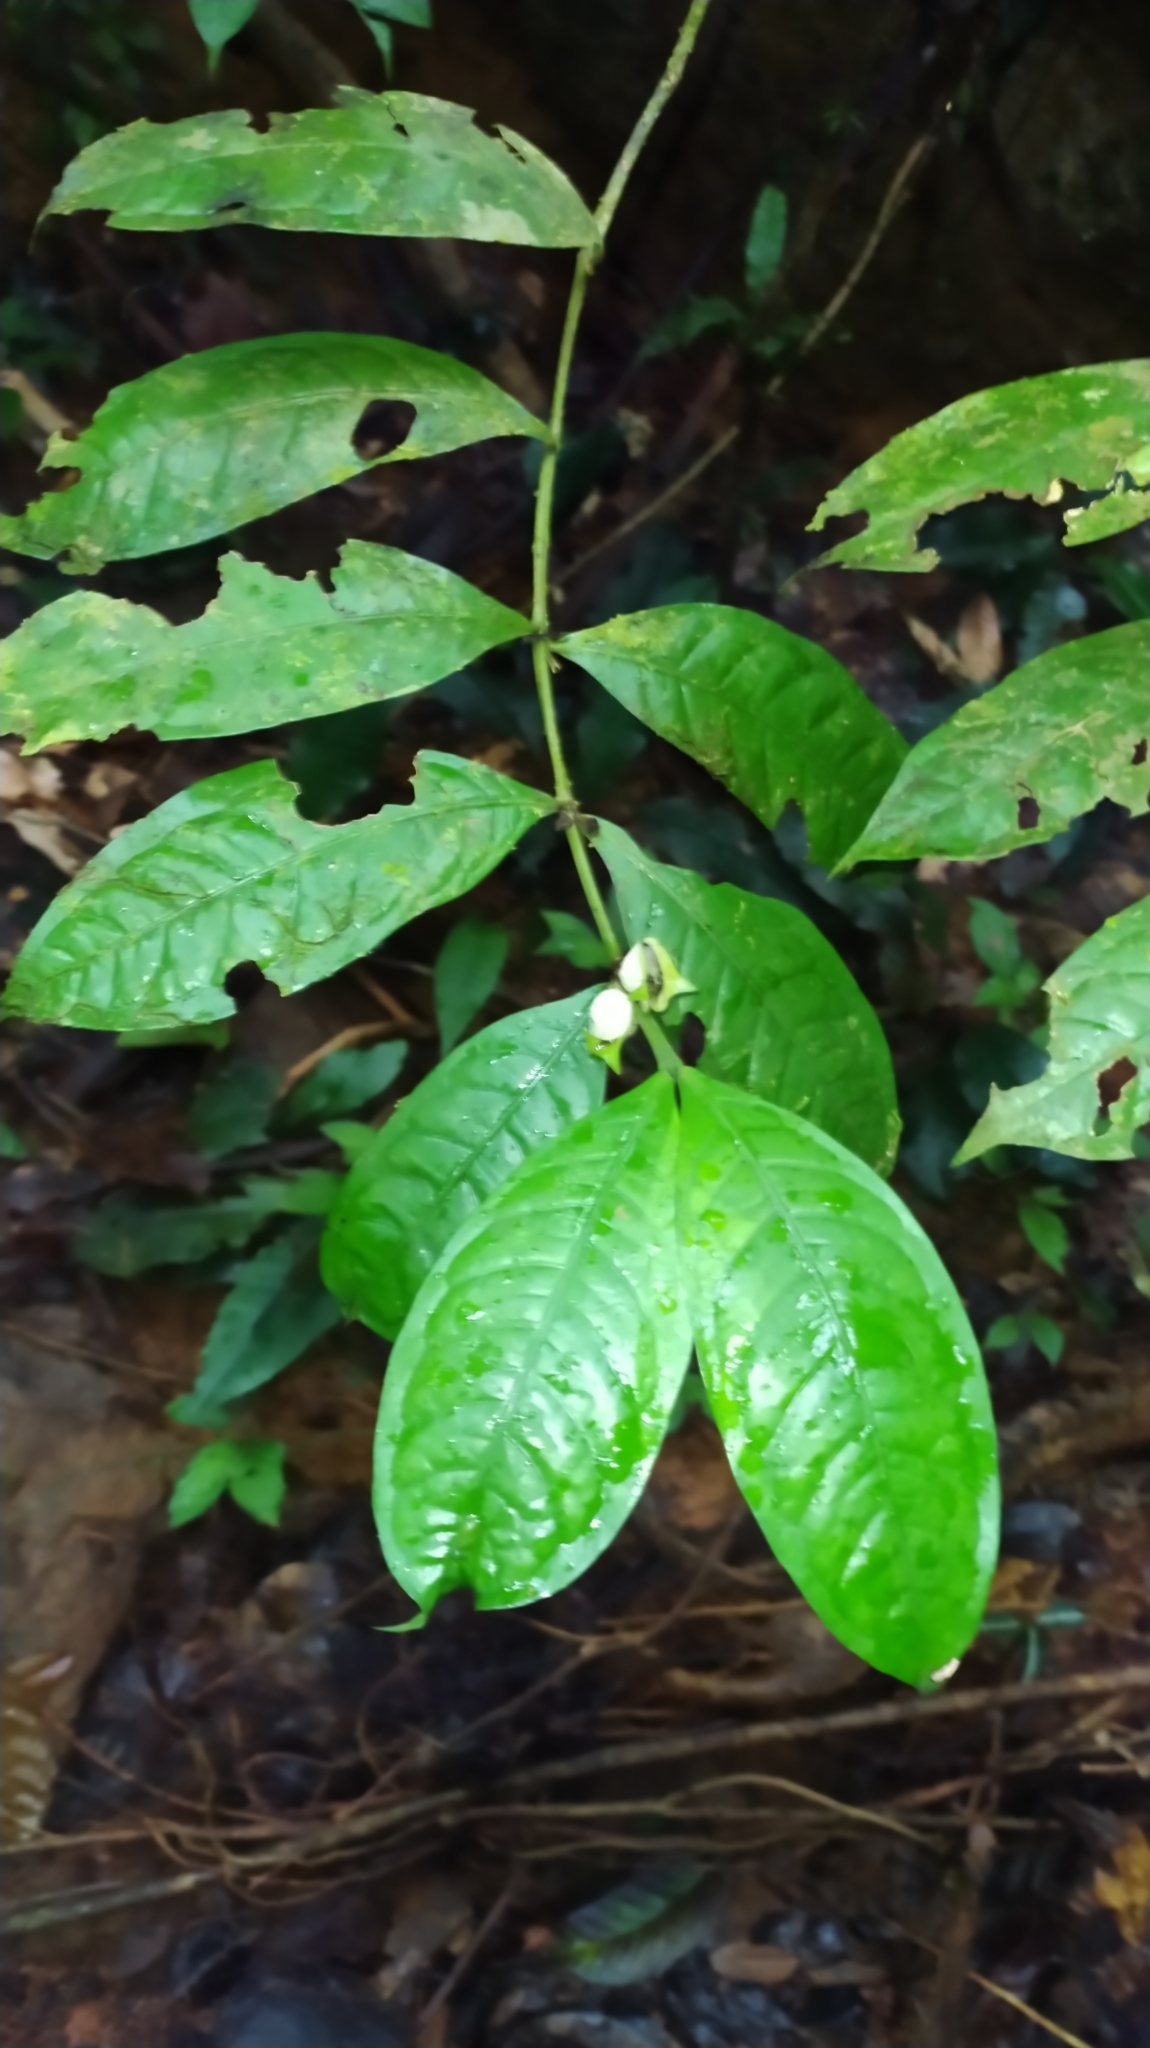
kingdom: Plantae
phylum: Tracheophyta
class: Magnoliopsida
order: Gentianales
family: Rubiaceae
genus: Faramea
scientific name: Faramea guianensis
